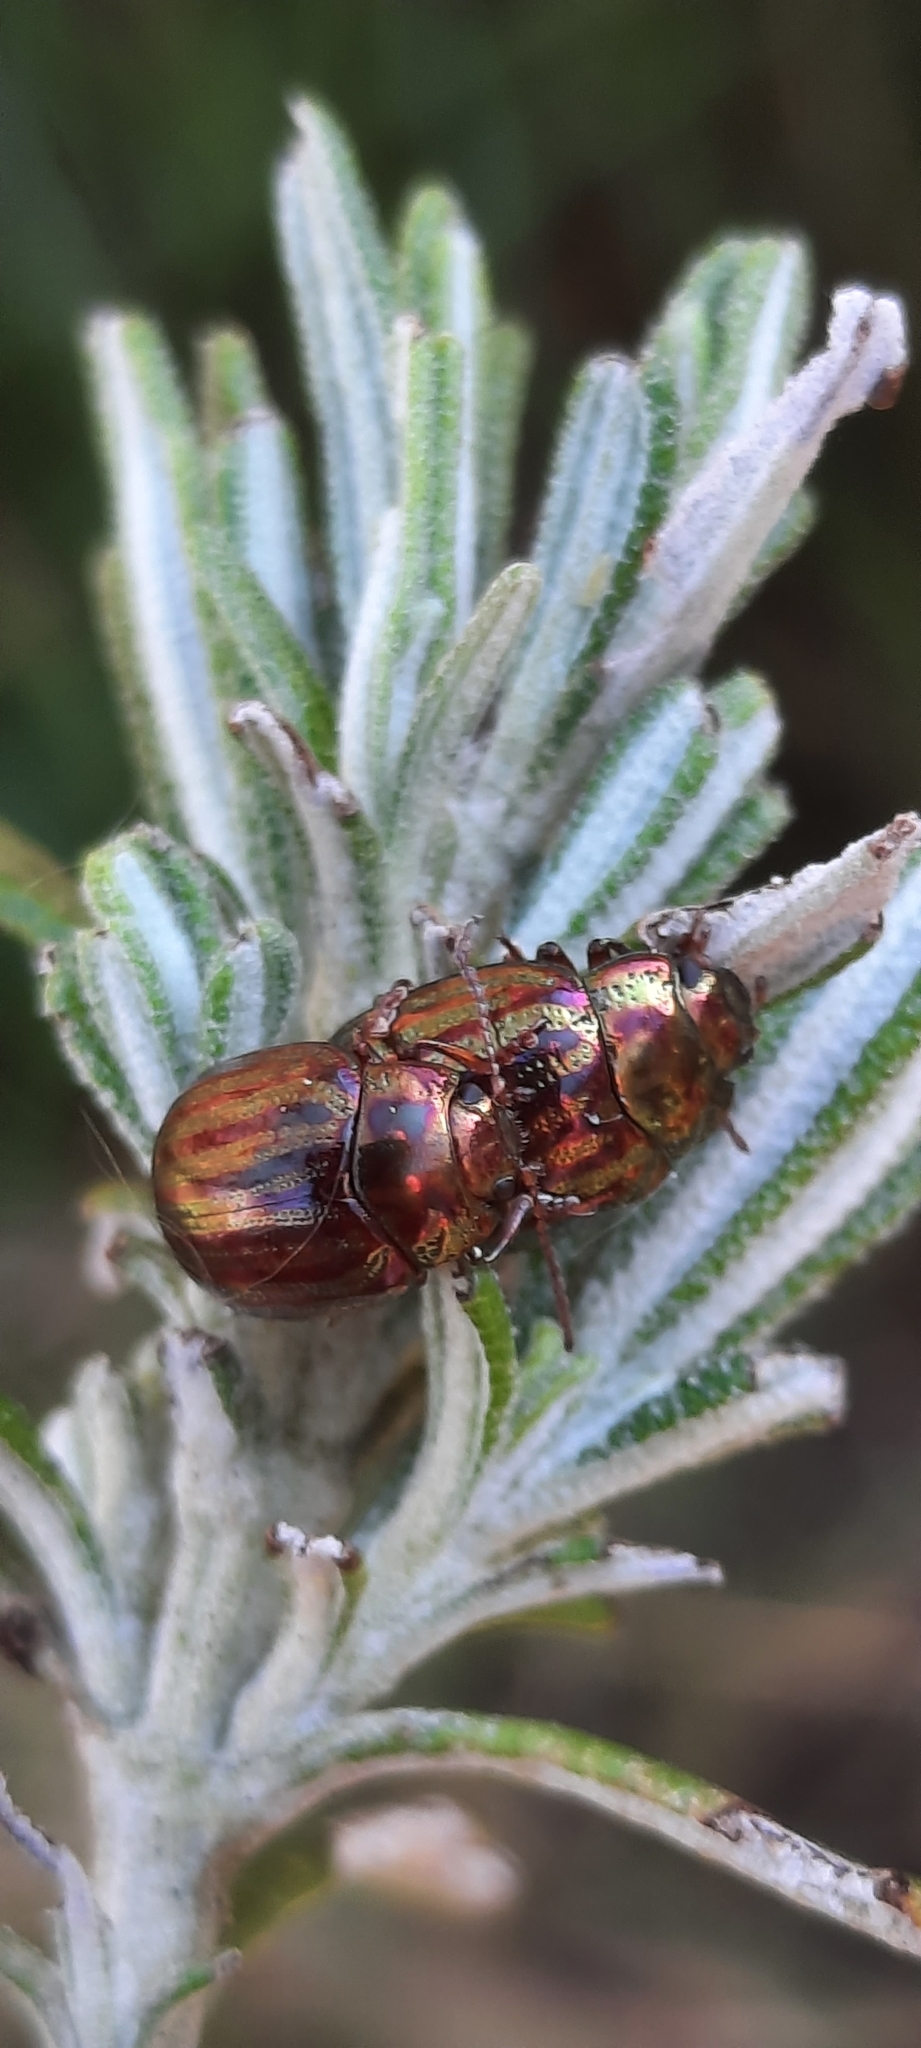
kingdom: Animalia
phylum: Arthropoda
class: Insecta
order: Coleoptera
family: Chrysomelidae
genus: Chrysolina
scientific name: Chrysolina americana
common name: Rosemary beetle
